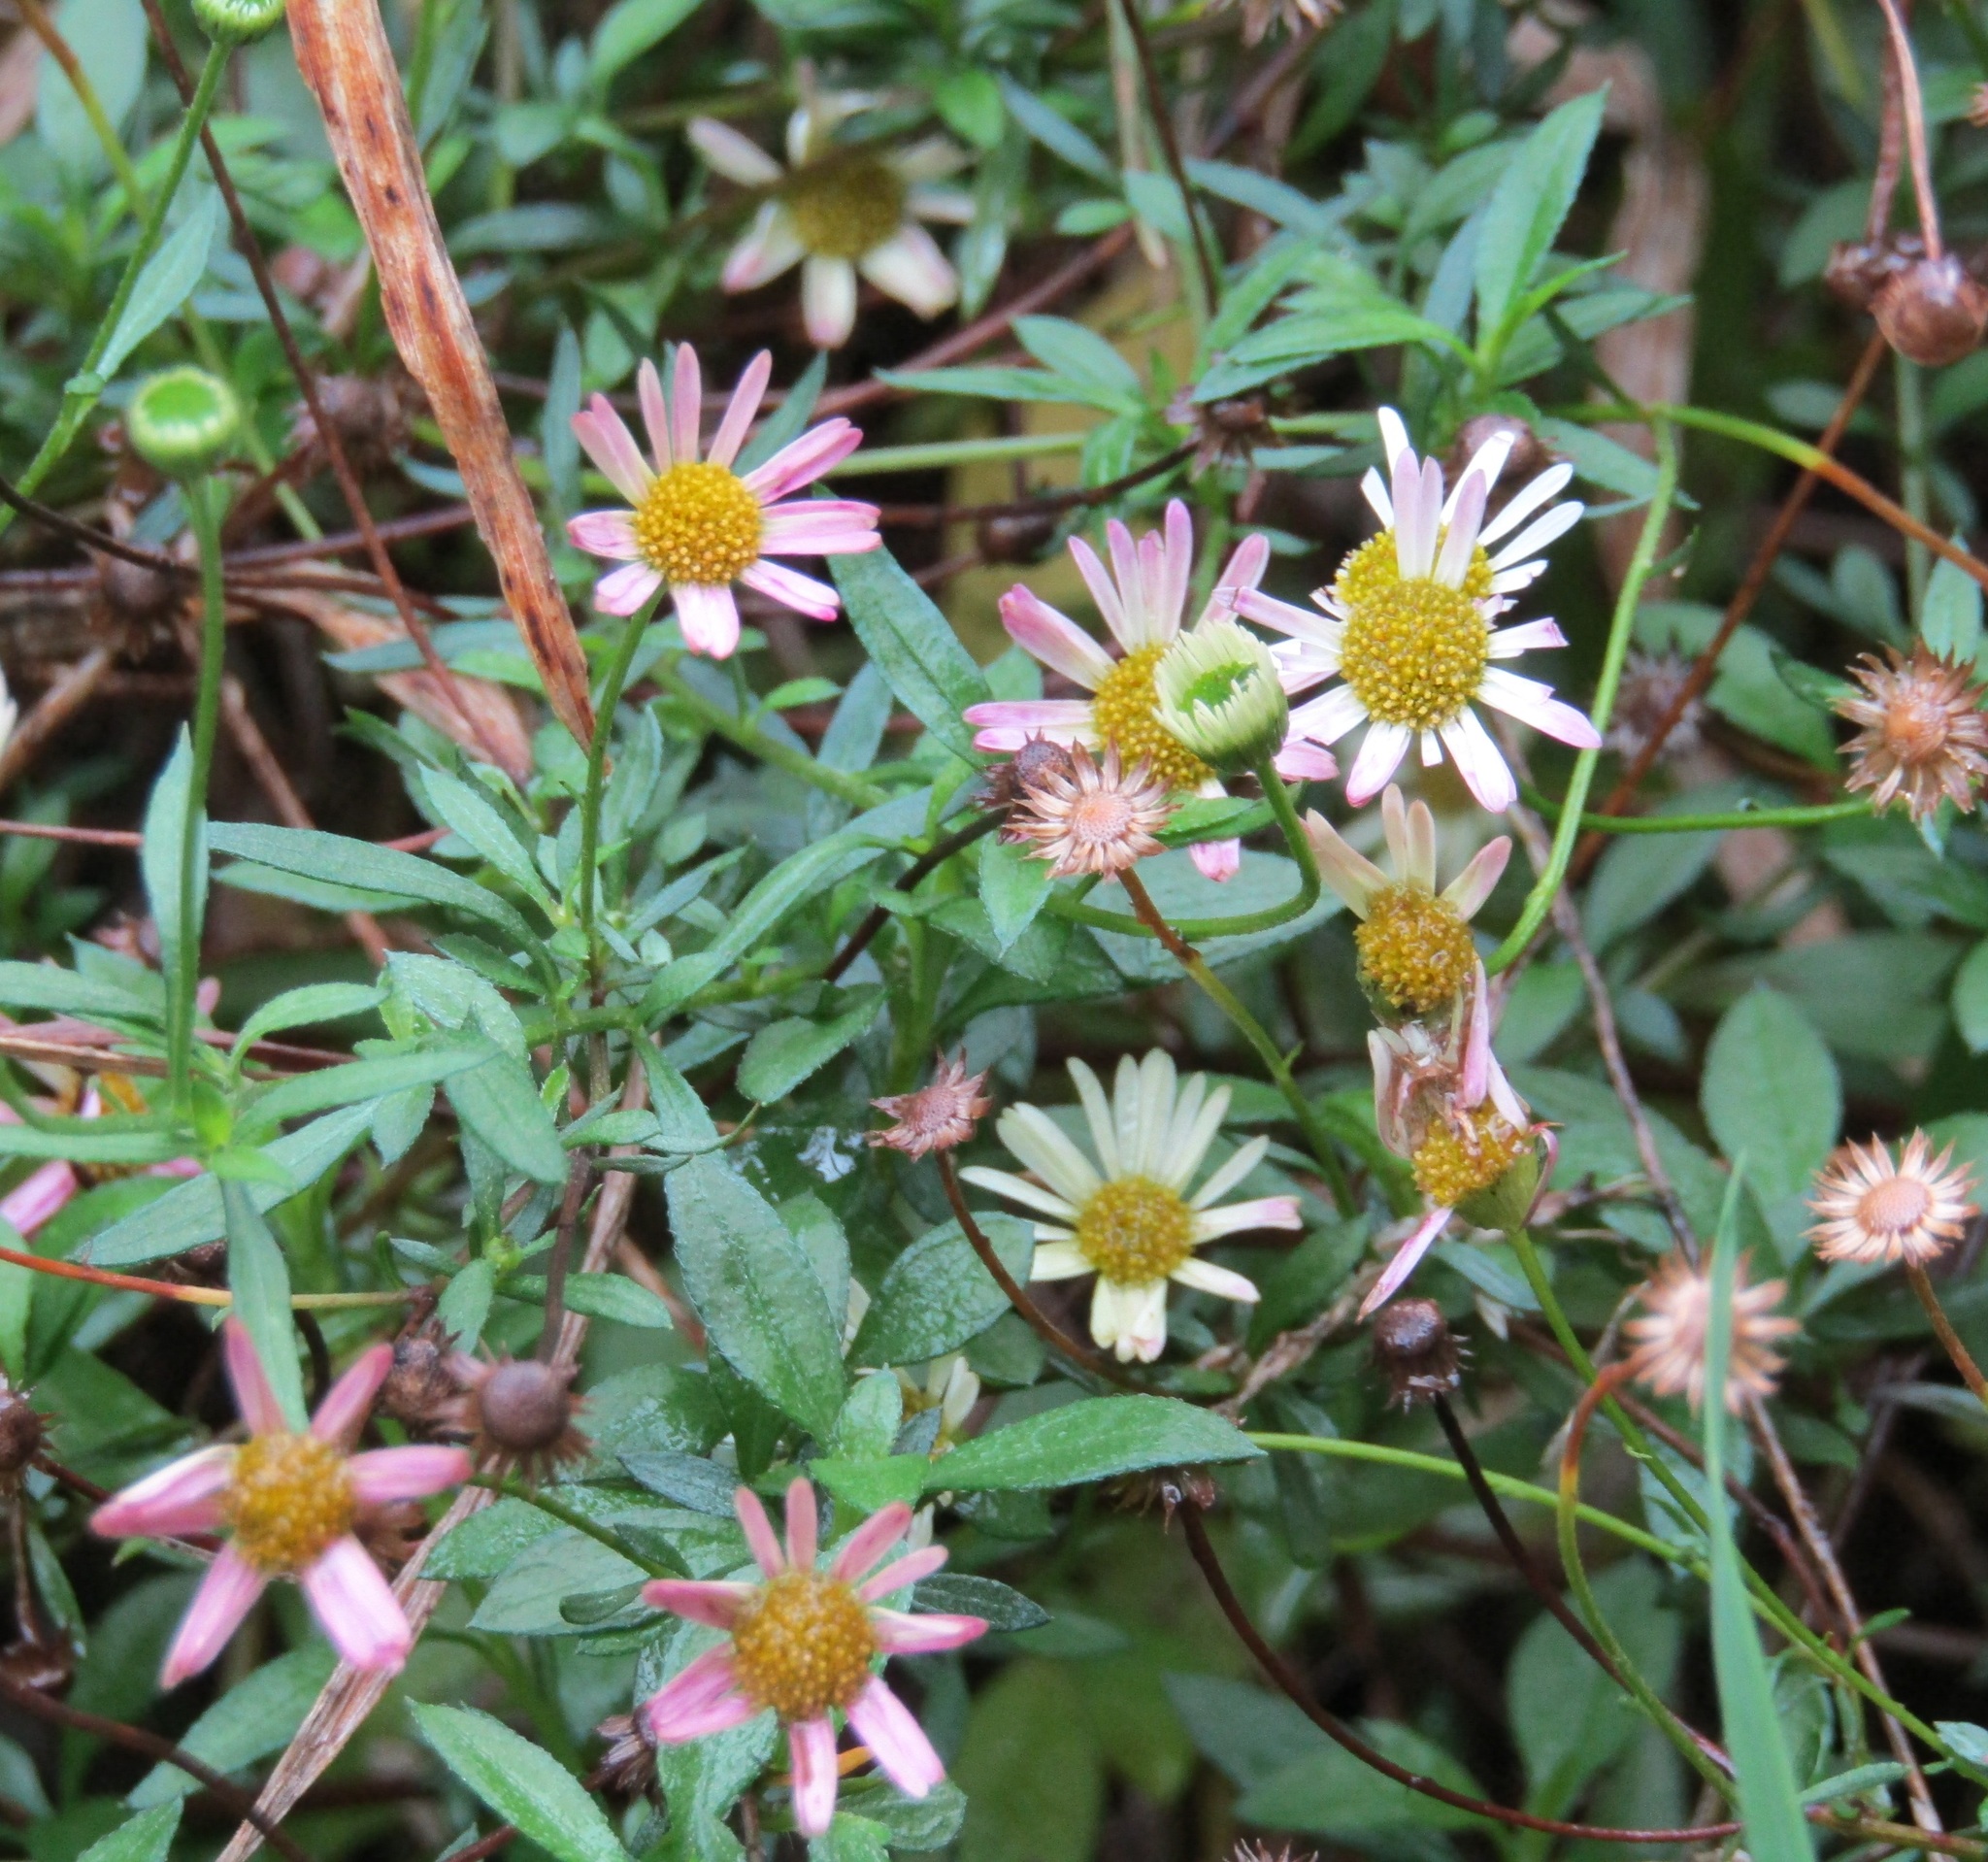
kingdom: Plantae
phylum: Tracheophyta
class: Magnoliopsida
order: Asterales
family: Asteraceae
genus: Erigeron
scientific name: Erigeron karvinskianus
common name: Mexican fleabane
